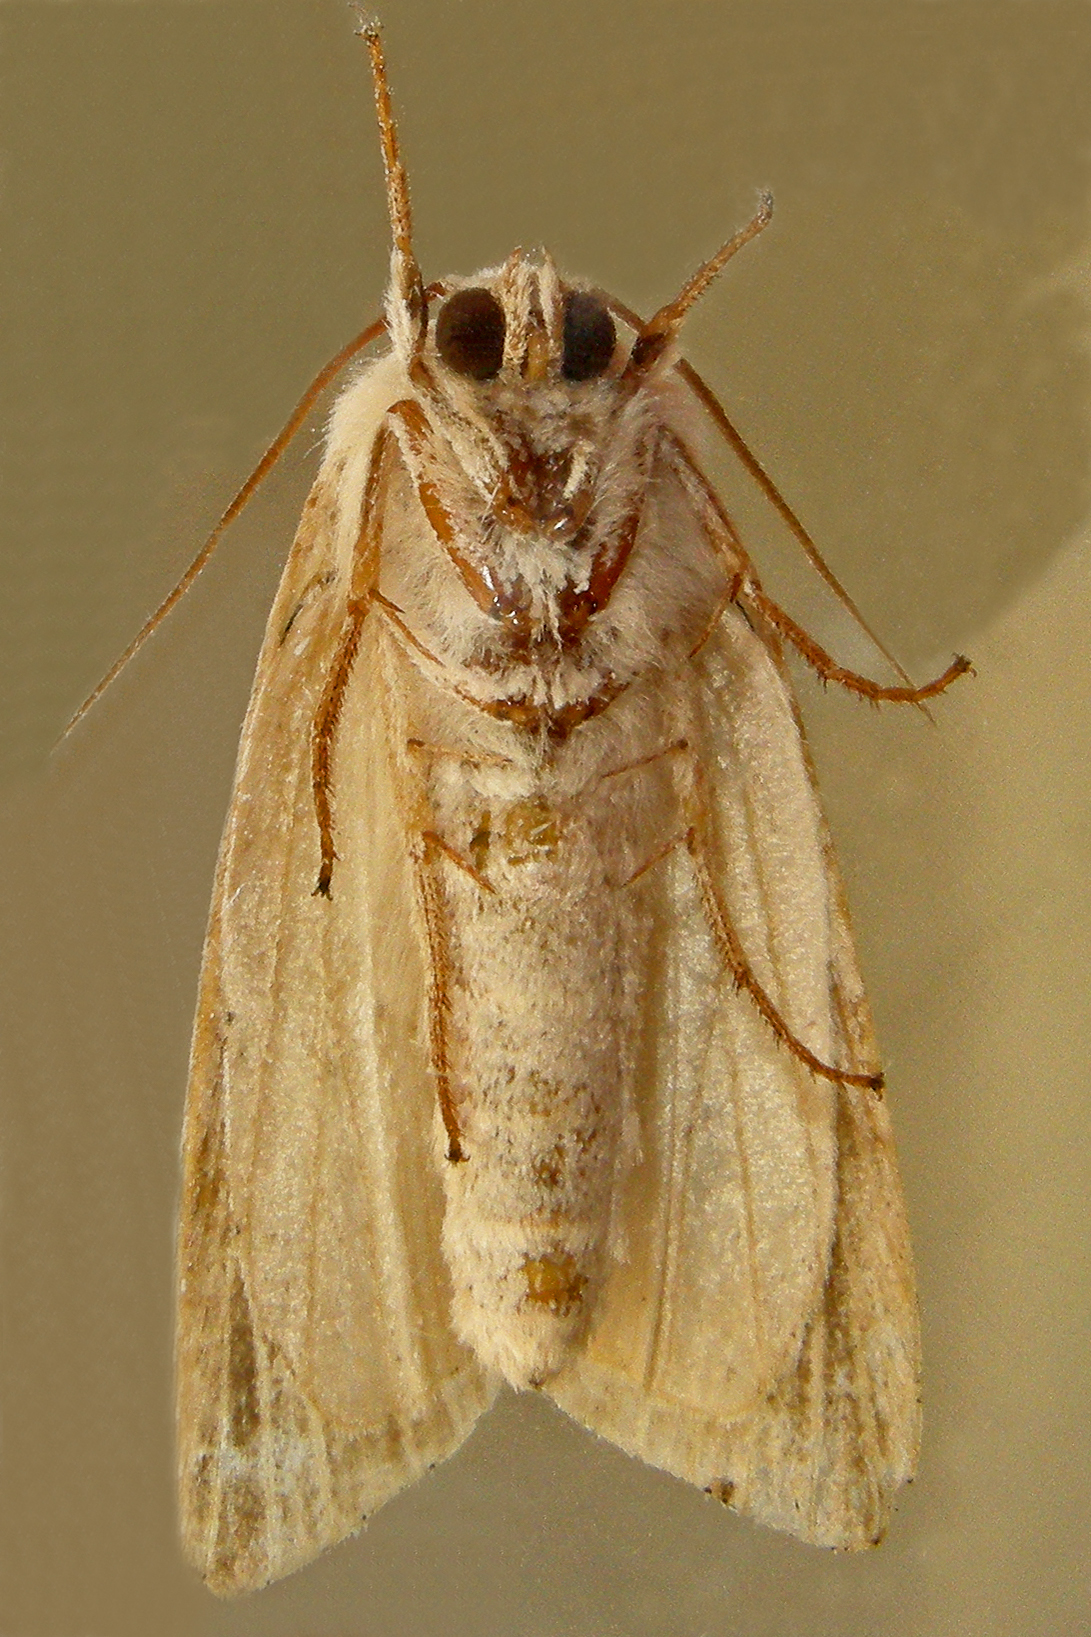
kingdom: Animalia
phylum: Arthropoda
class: Insecta
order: Lepidoptera
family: Noctuidae
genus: Acronicta
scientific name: Acronicta insularis
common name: Henry's marsh moth
